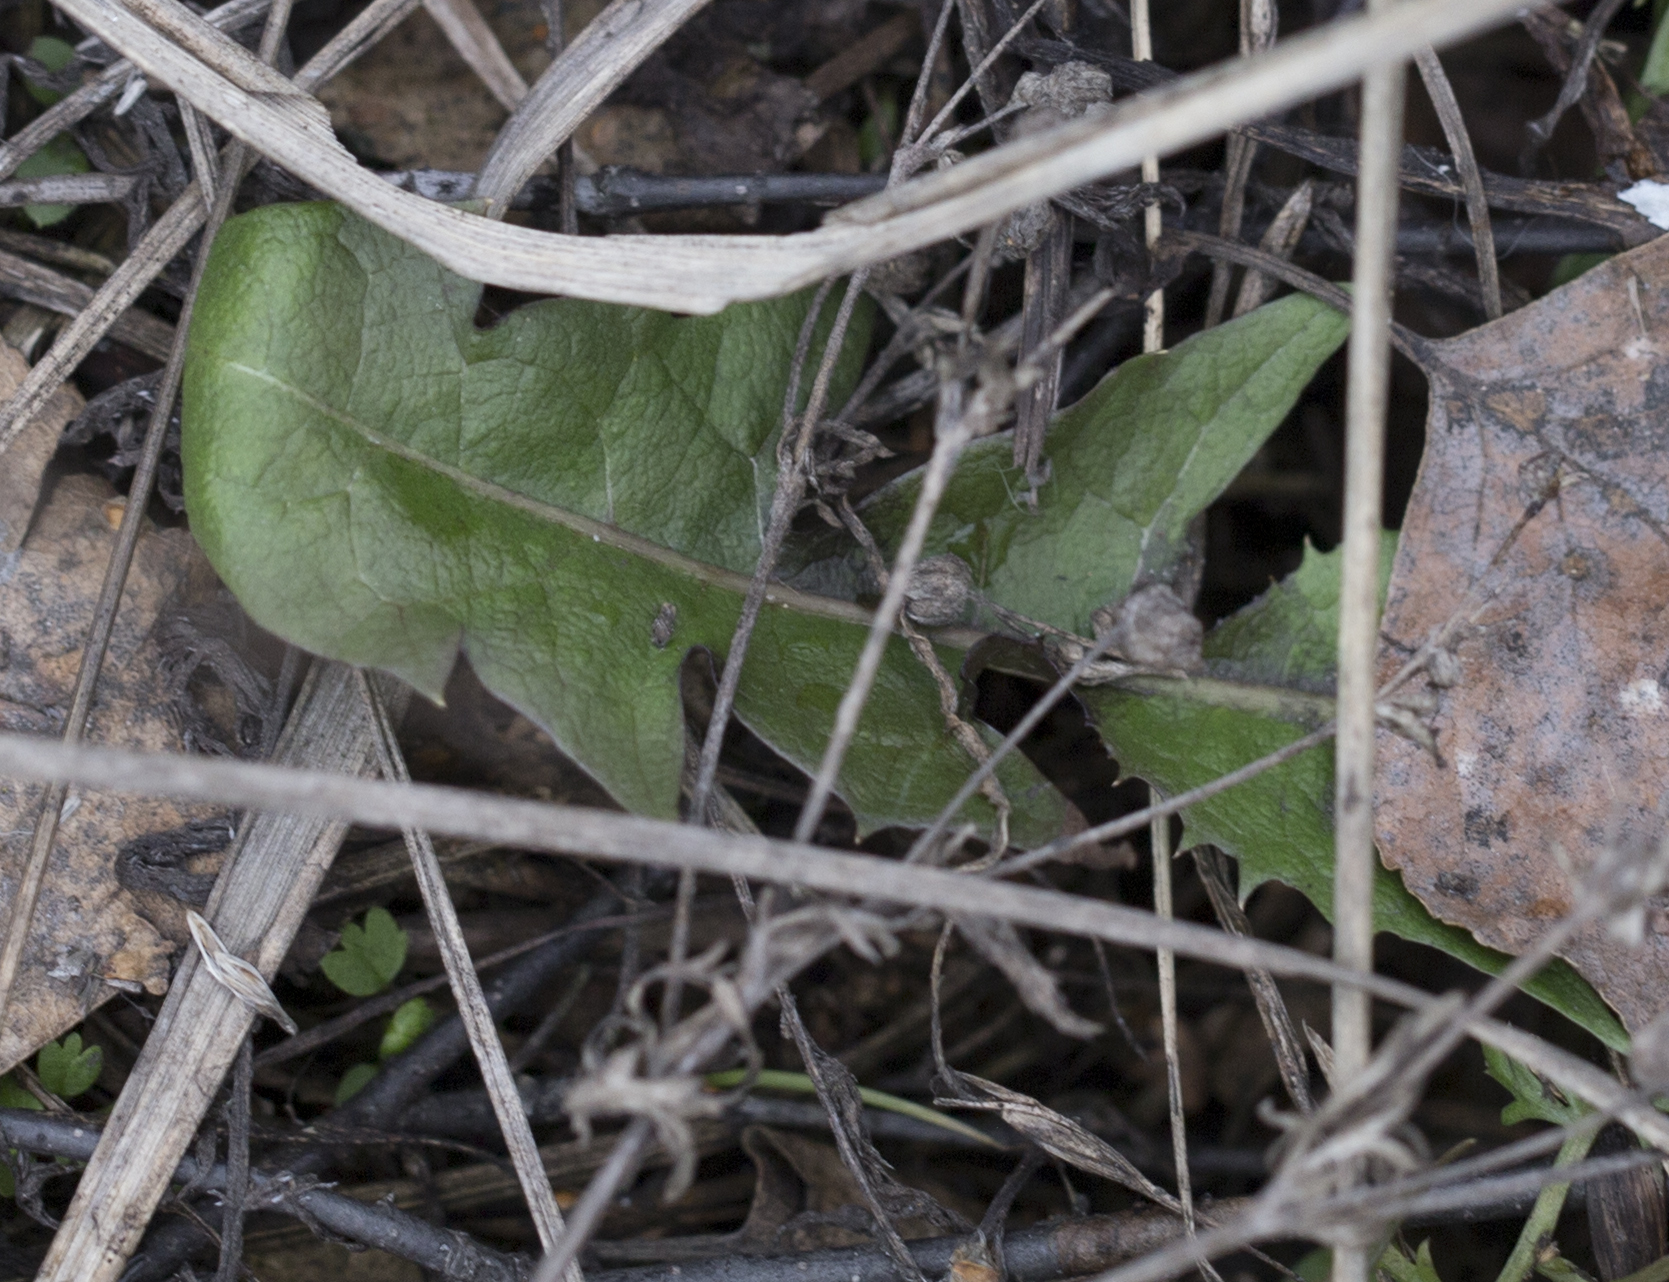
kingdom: Plantae
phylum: Tracheophyta
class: Magnoliopsida
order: Asterales
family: Asteraceae
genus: Taraxacum
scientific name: Taraxacum officinale
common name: Common dandelion
